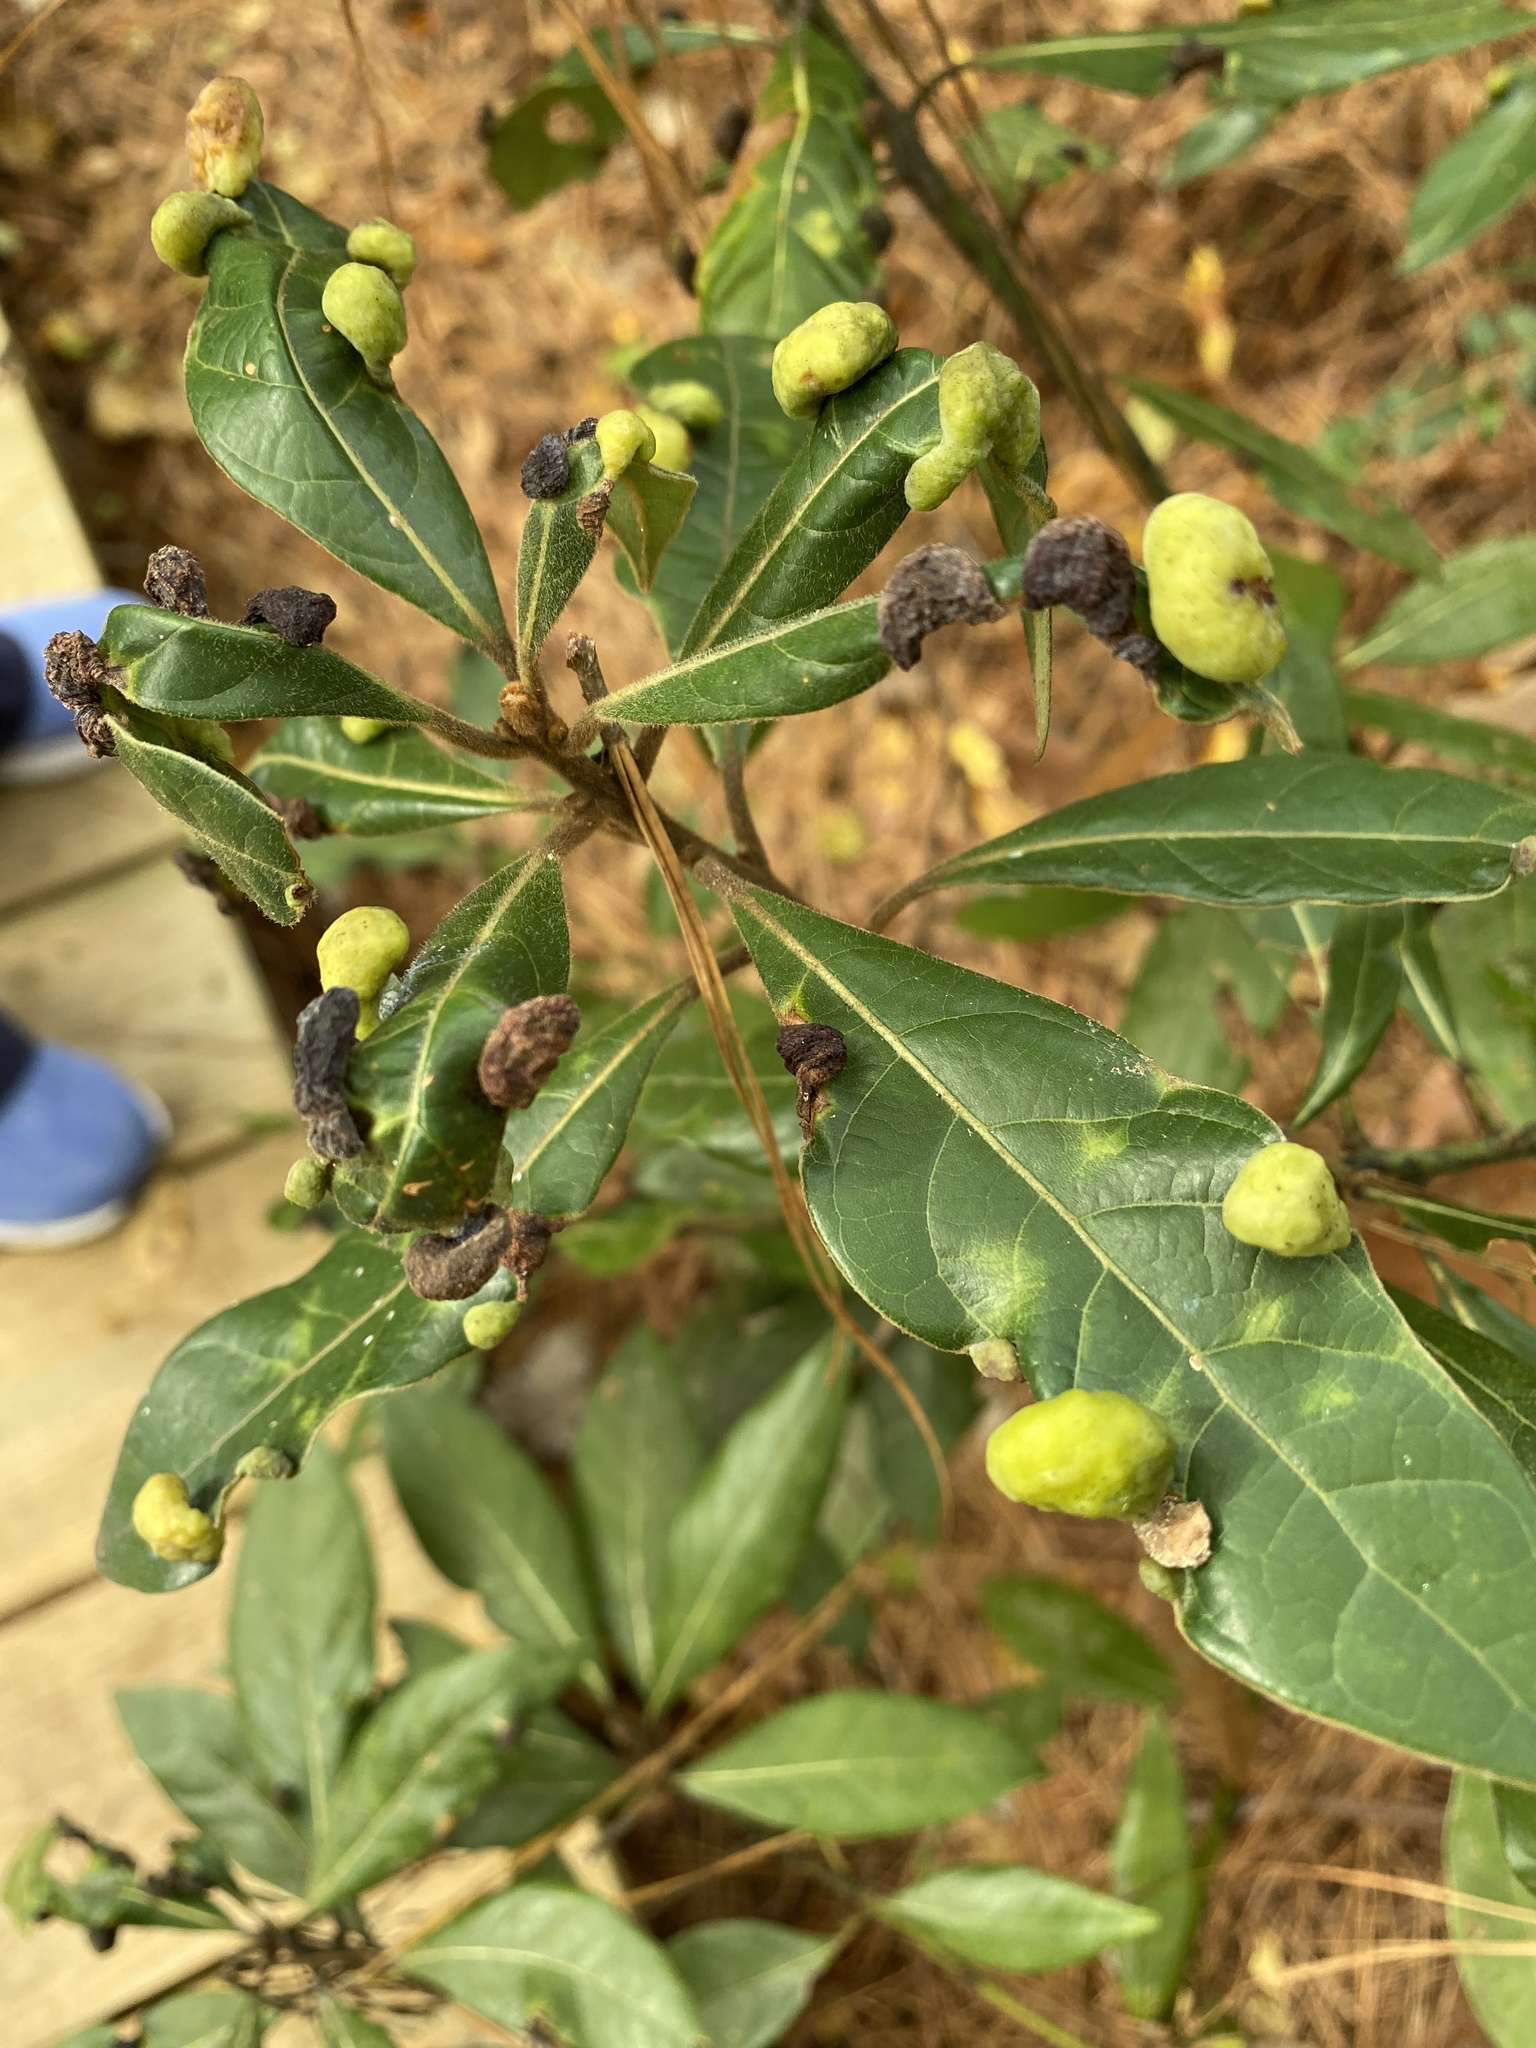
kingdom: Animalia
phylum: Arthropoda
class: Insecta
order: Hemiptera
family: Triozidae
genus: Trioza
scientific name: Trioza magnoliae
